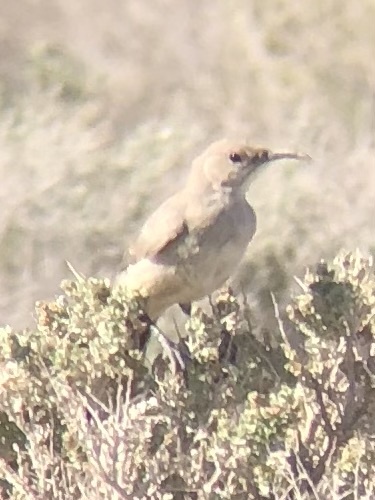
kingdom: Animalia
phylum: Chordata
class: Aves
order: Passeriformes
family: Mimidae
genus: Toxostoma
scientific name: Toxostoma lecontei
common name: Le conte's thrasher
